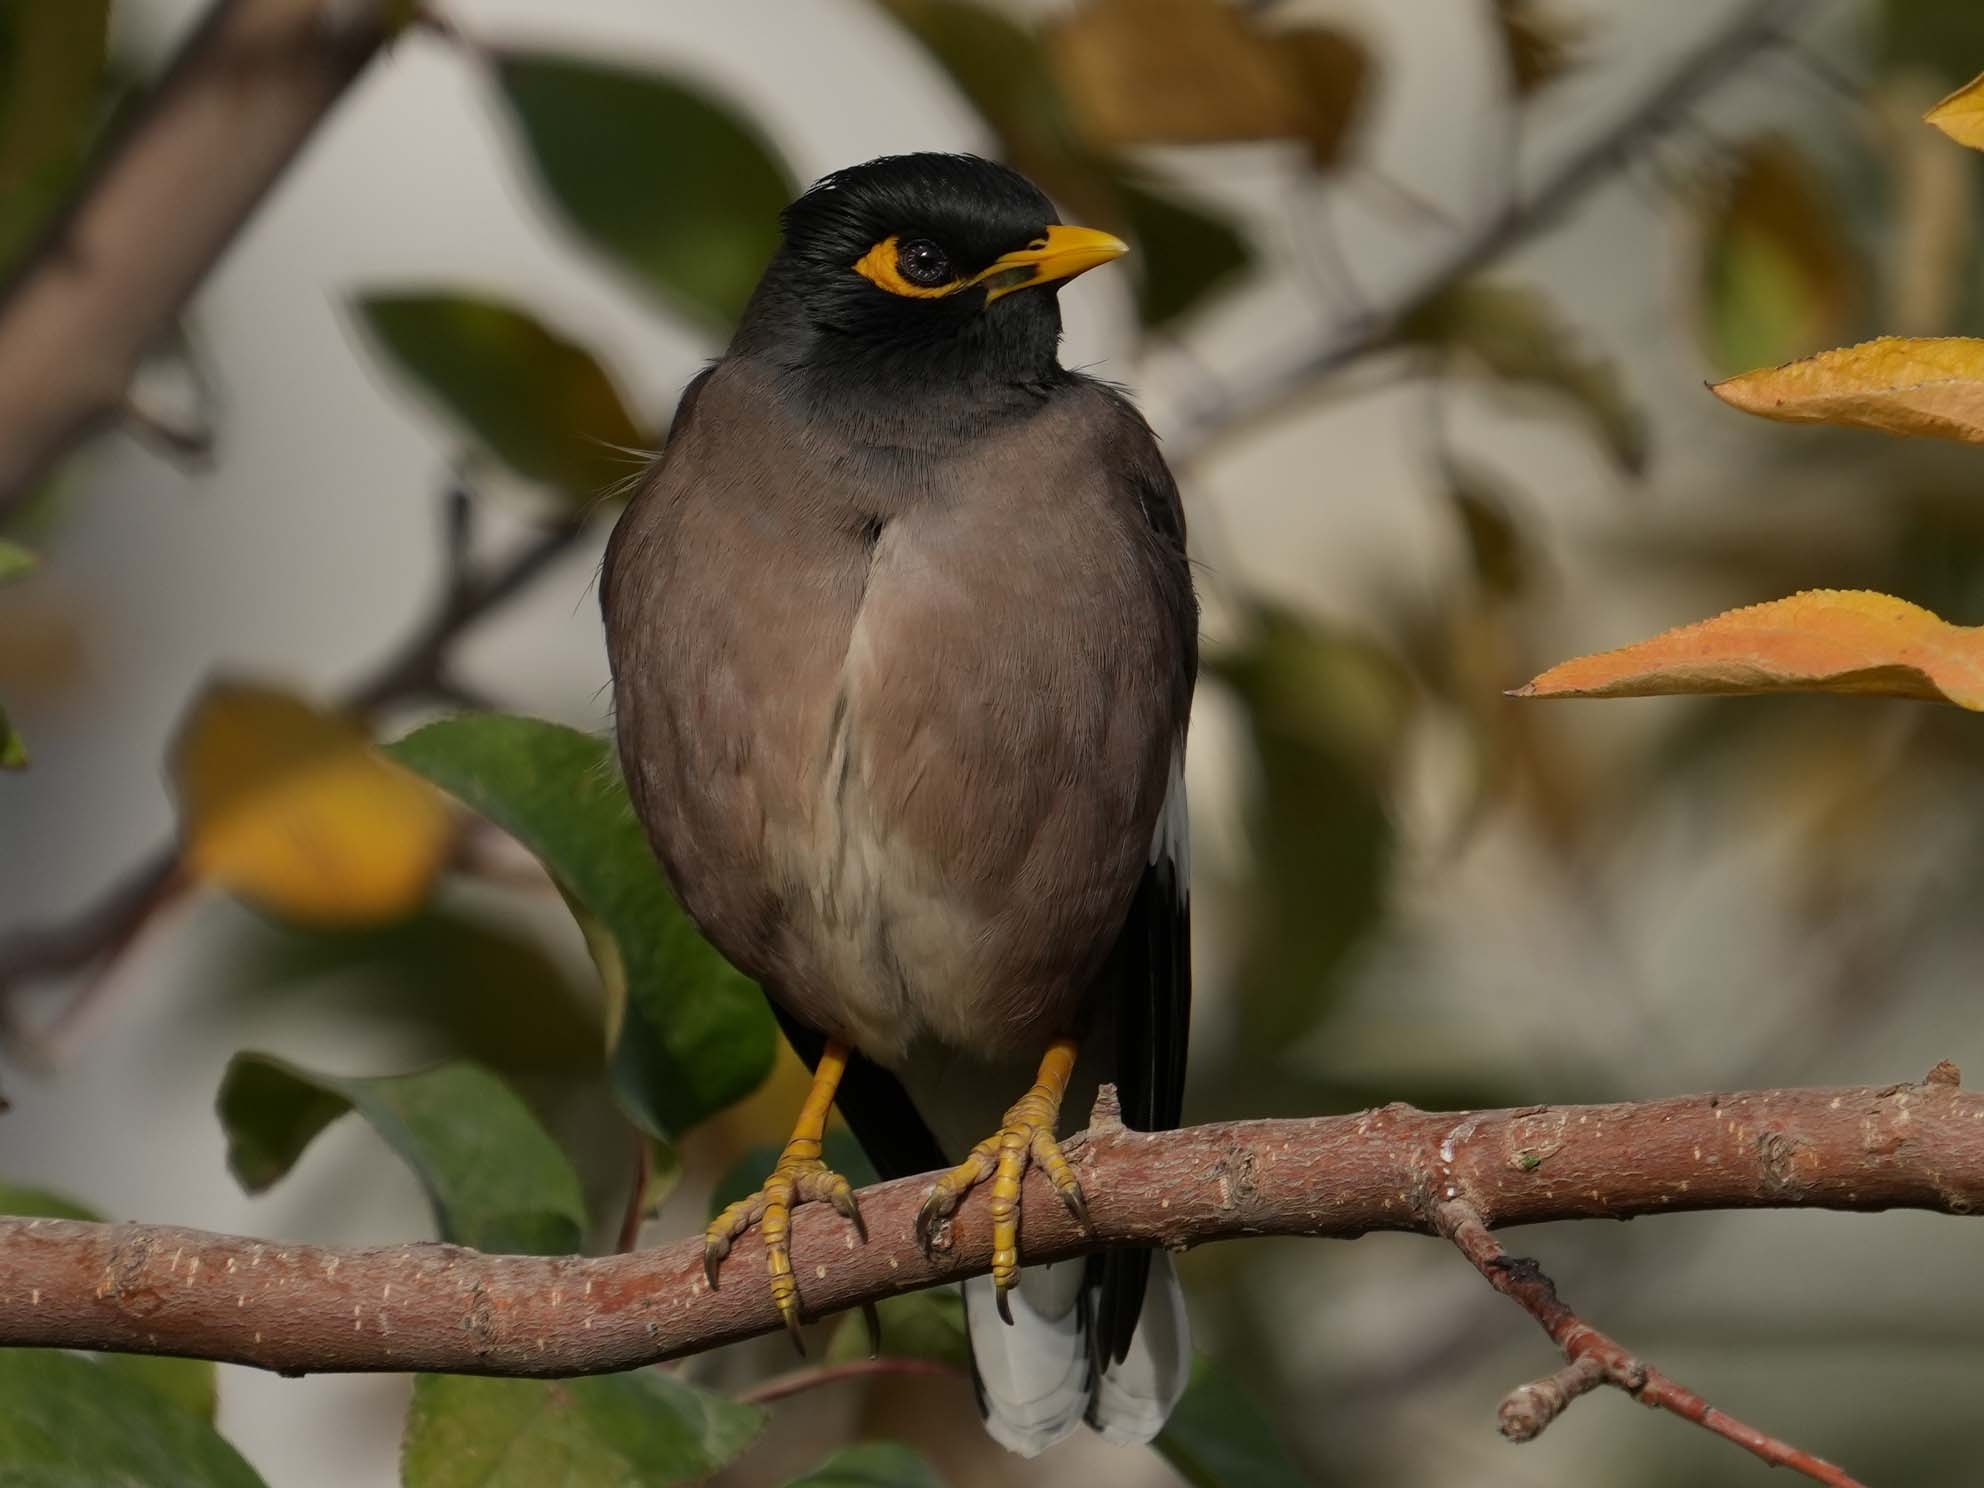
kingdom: Animalia
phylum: Chordata
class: Aves
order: Passeriformes
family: Sturnidae
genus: Acridotheres
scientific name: Acridotheres tristis
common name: Common myna
